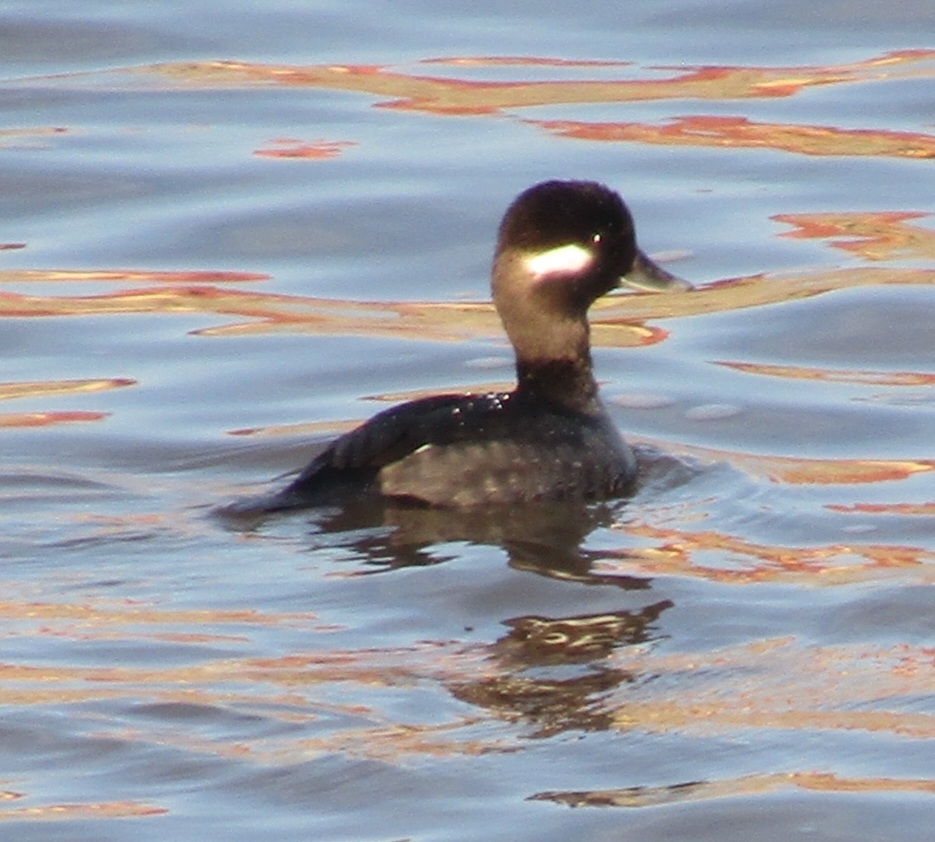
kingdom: Animalia
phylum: Chordata
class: Aves
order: Anseriformes
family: Anatidae
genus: Bucephala
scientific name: Bucephala albeola
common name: Bufflehead
